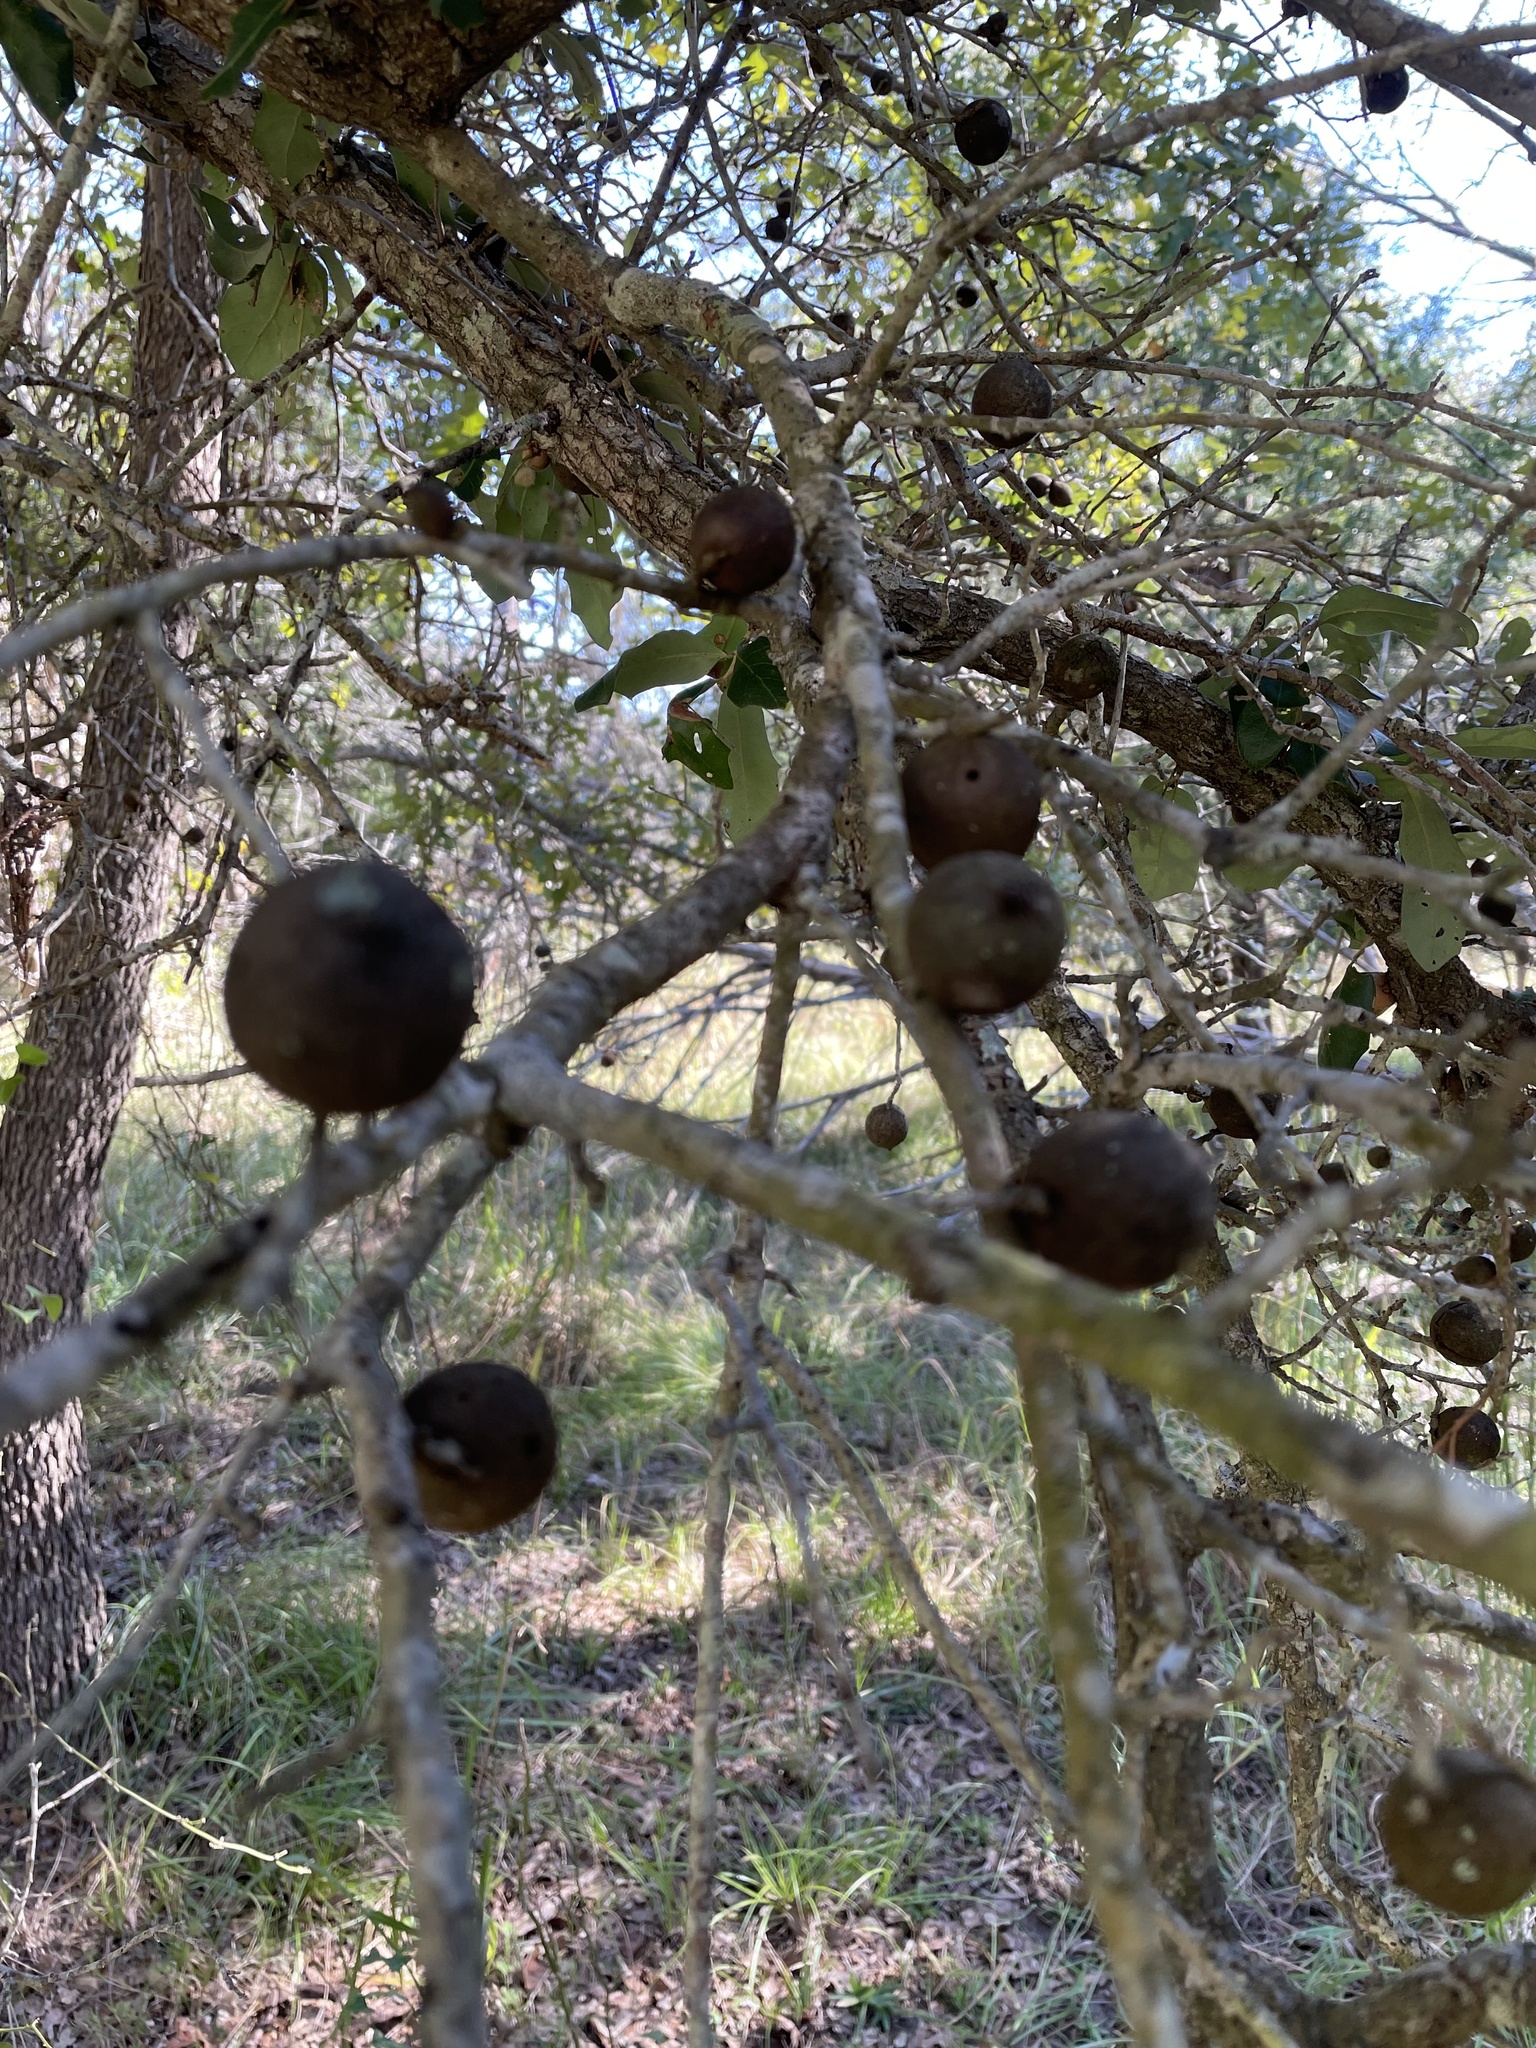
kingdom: Animalia
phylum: Arthropoda
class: Insecta
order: Hymenoptera
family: Cynipidae
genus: Disholcaspis
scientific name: Disholcaspis
